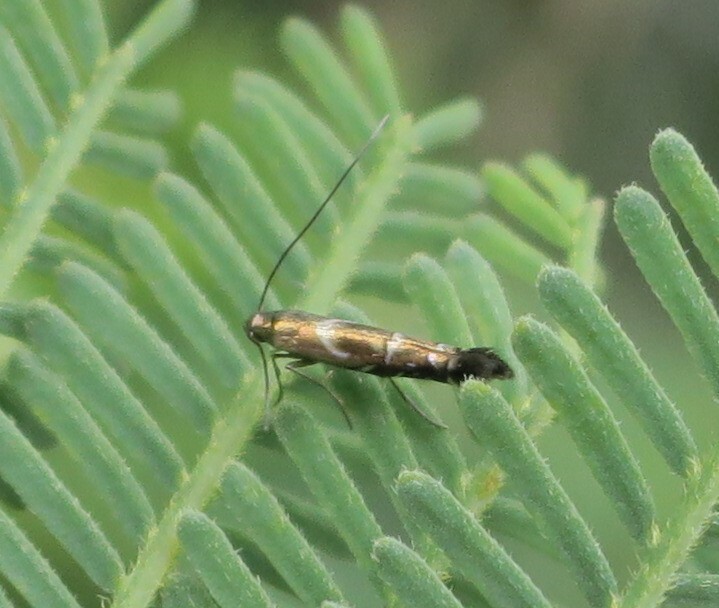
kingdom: Animalia
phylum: Arthropoda
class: Insecta
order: Lepidoptera
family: Gracillariidae
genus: Polysoma
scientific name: Polysoma eumetalla
